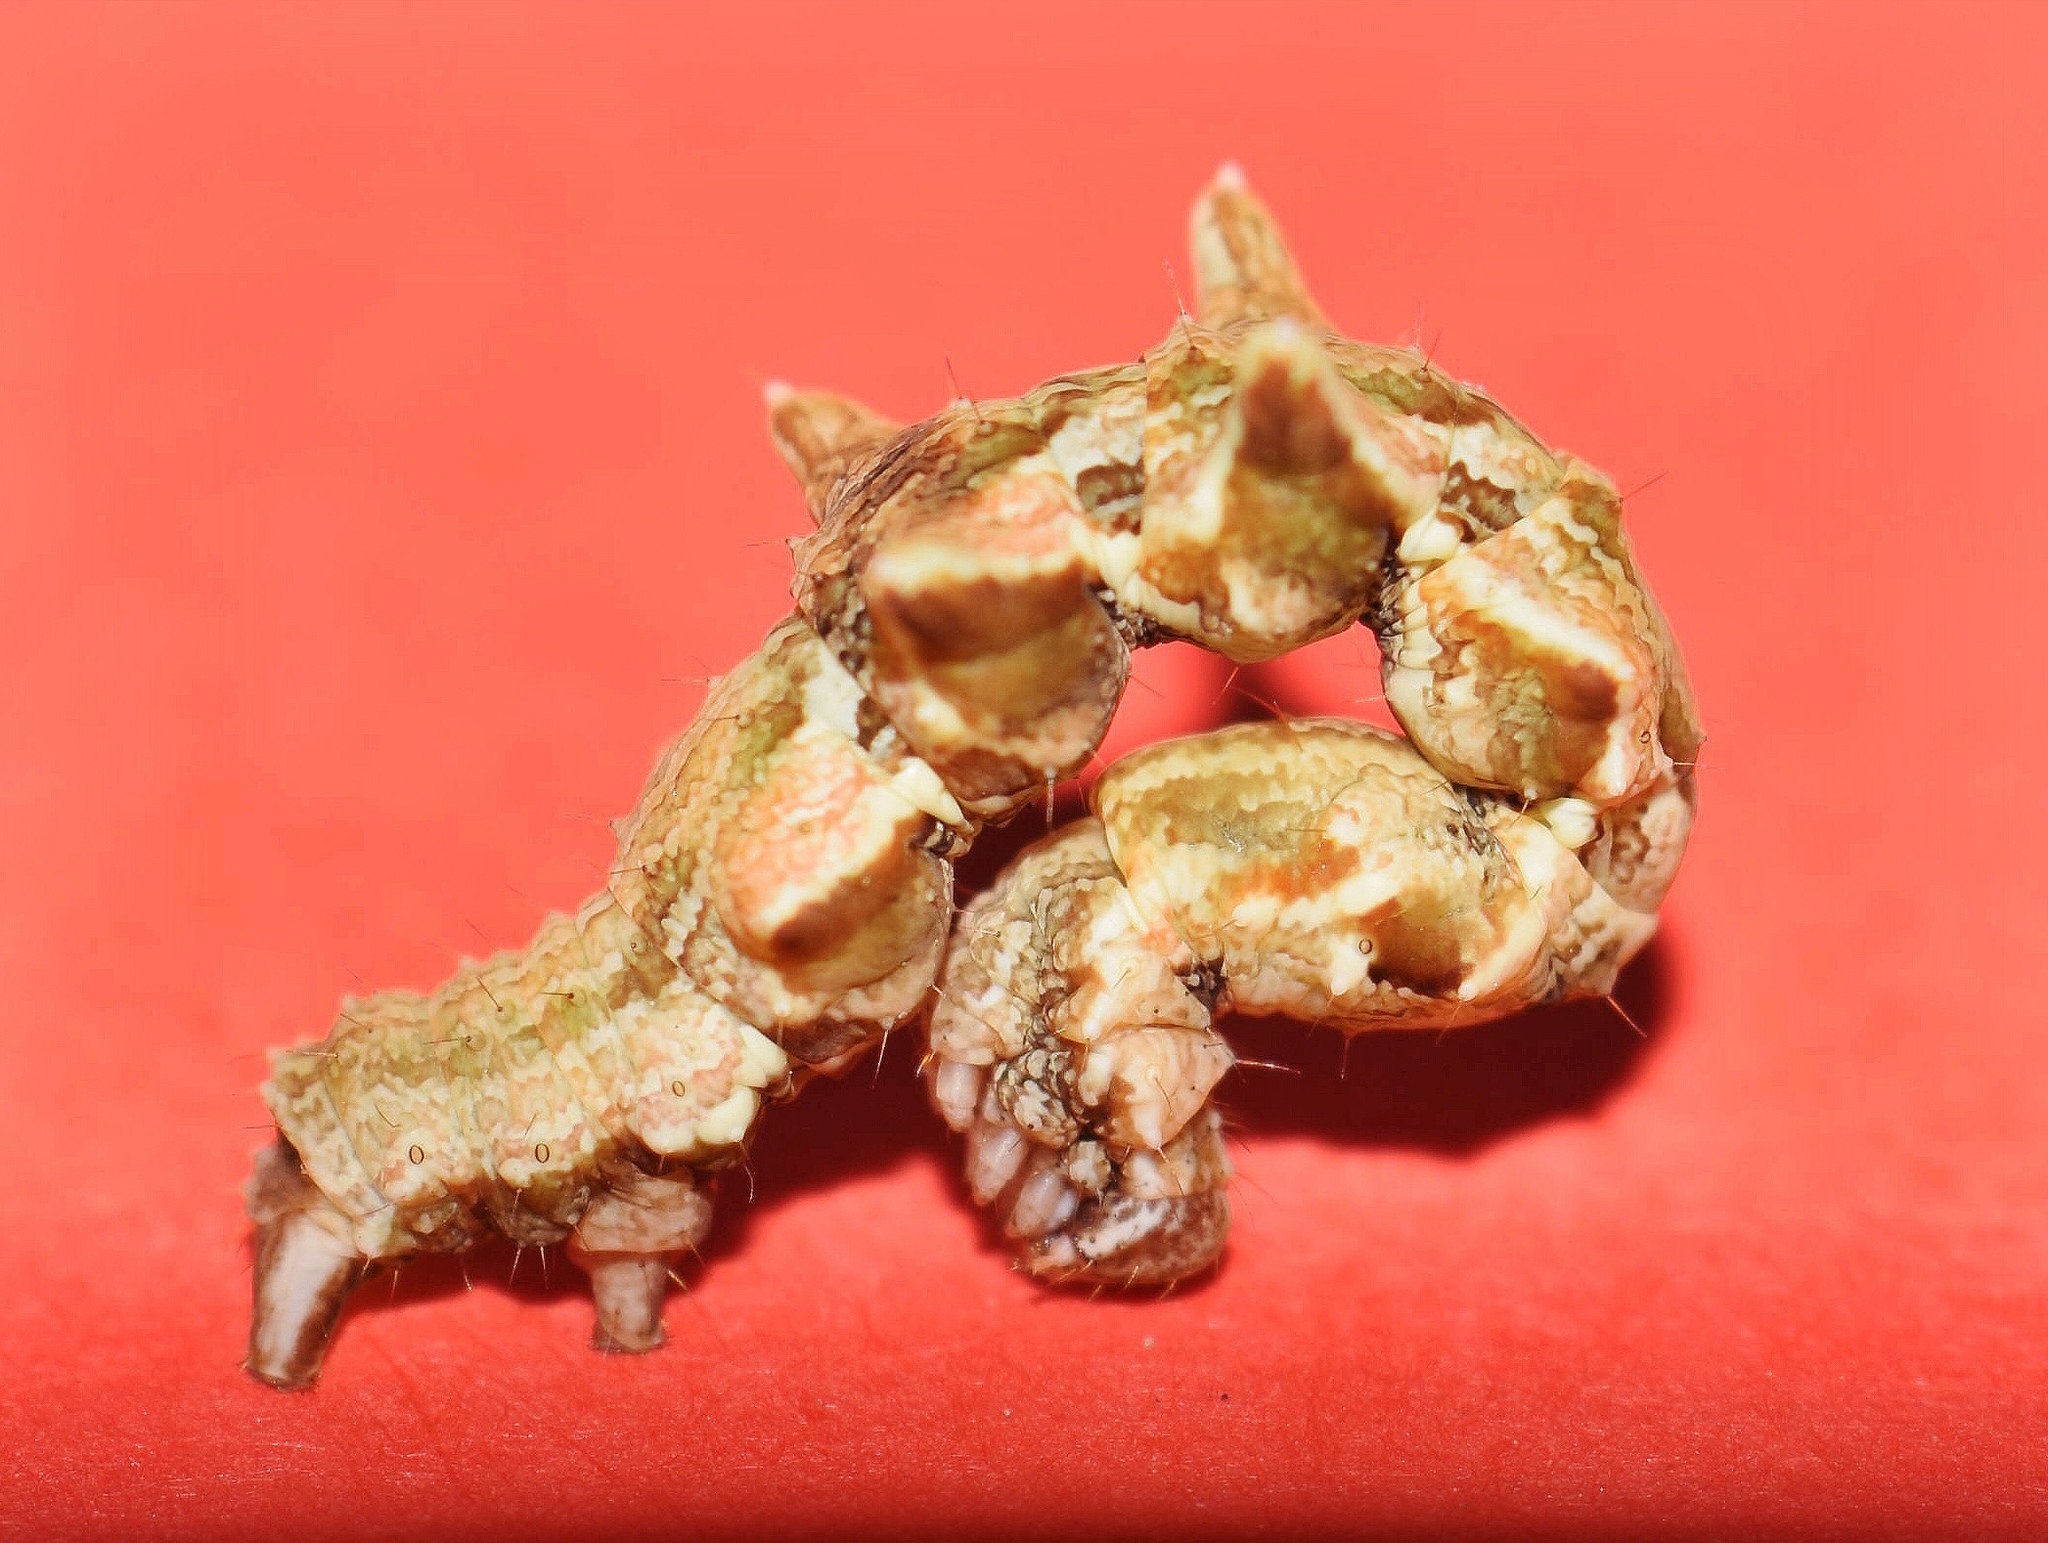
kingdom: Animalia
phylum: Arthropoda
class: Insecta
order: Lepidoptera
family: Geometridae
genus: Traminda
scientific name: Traminda obversata
